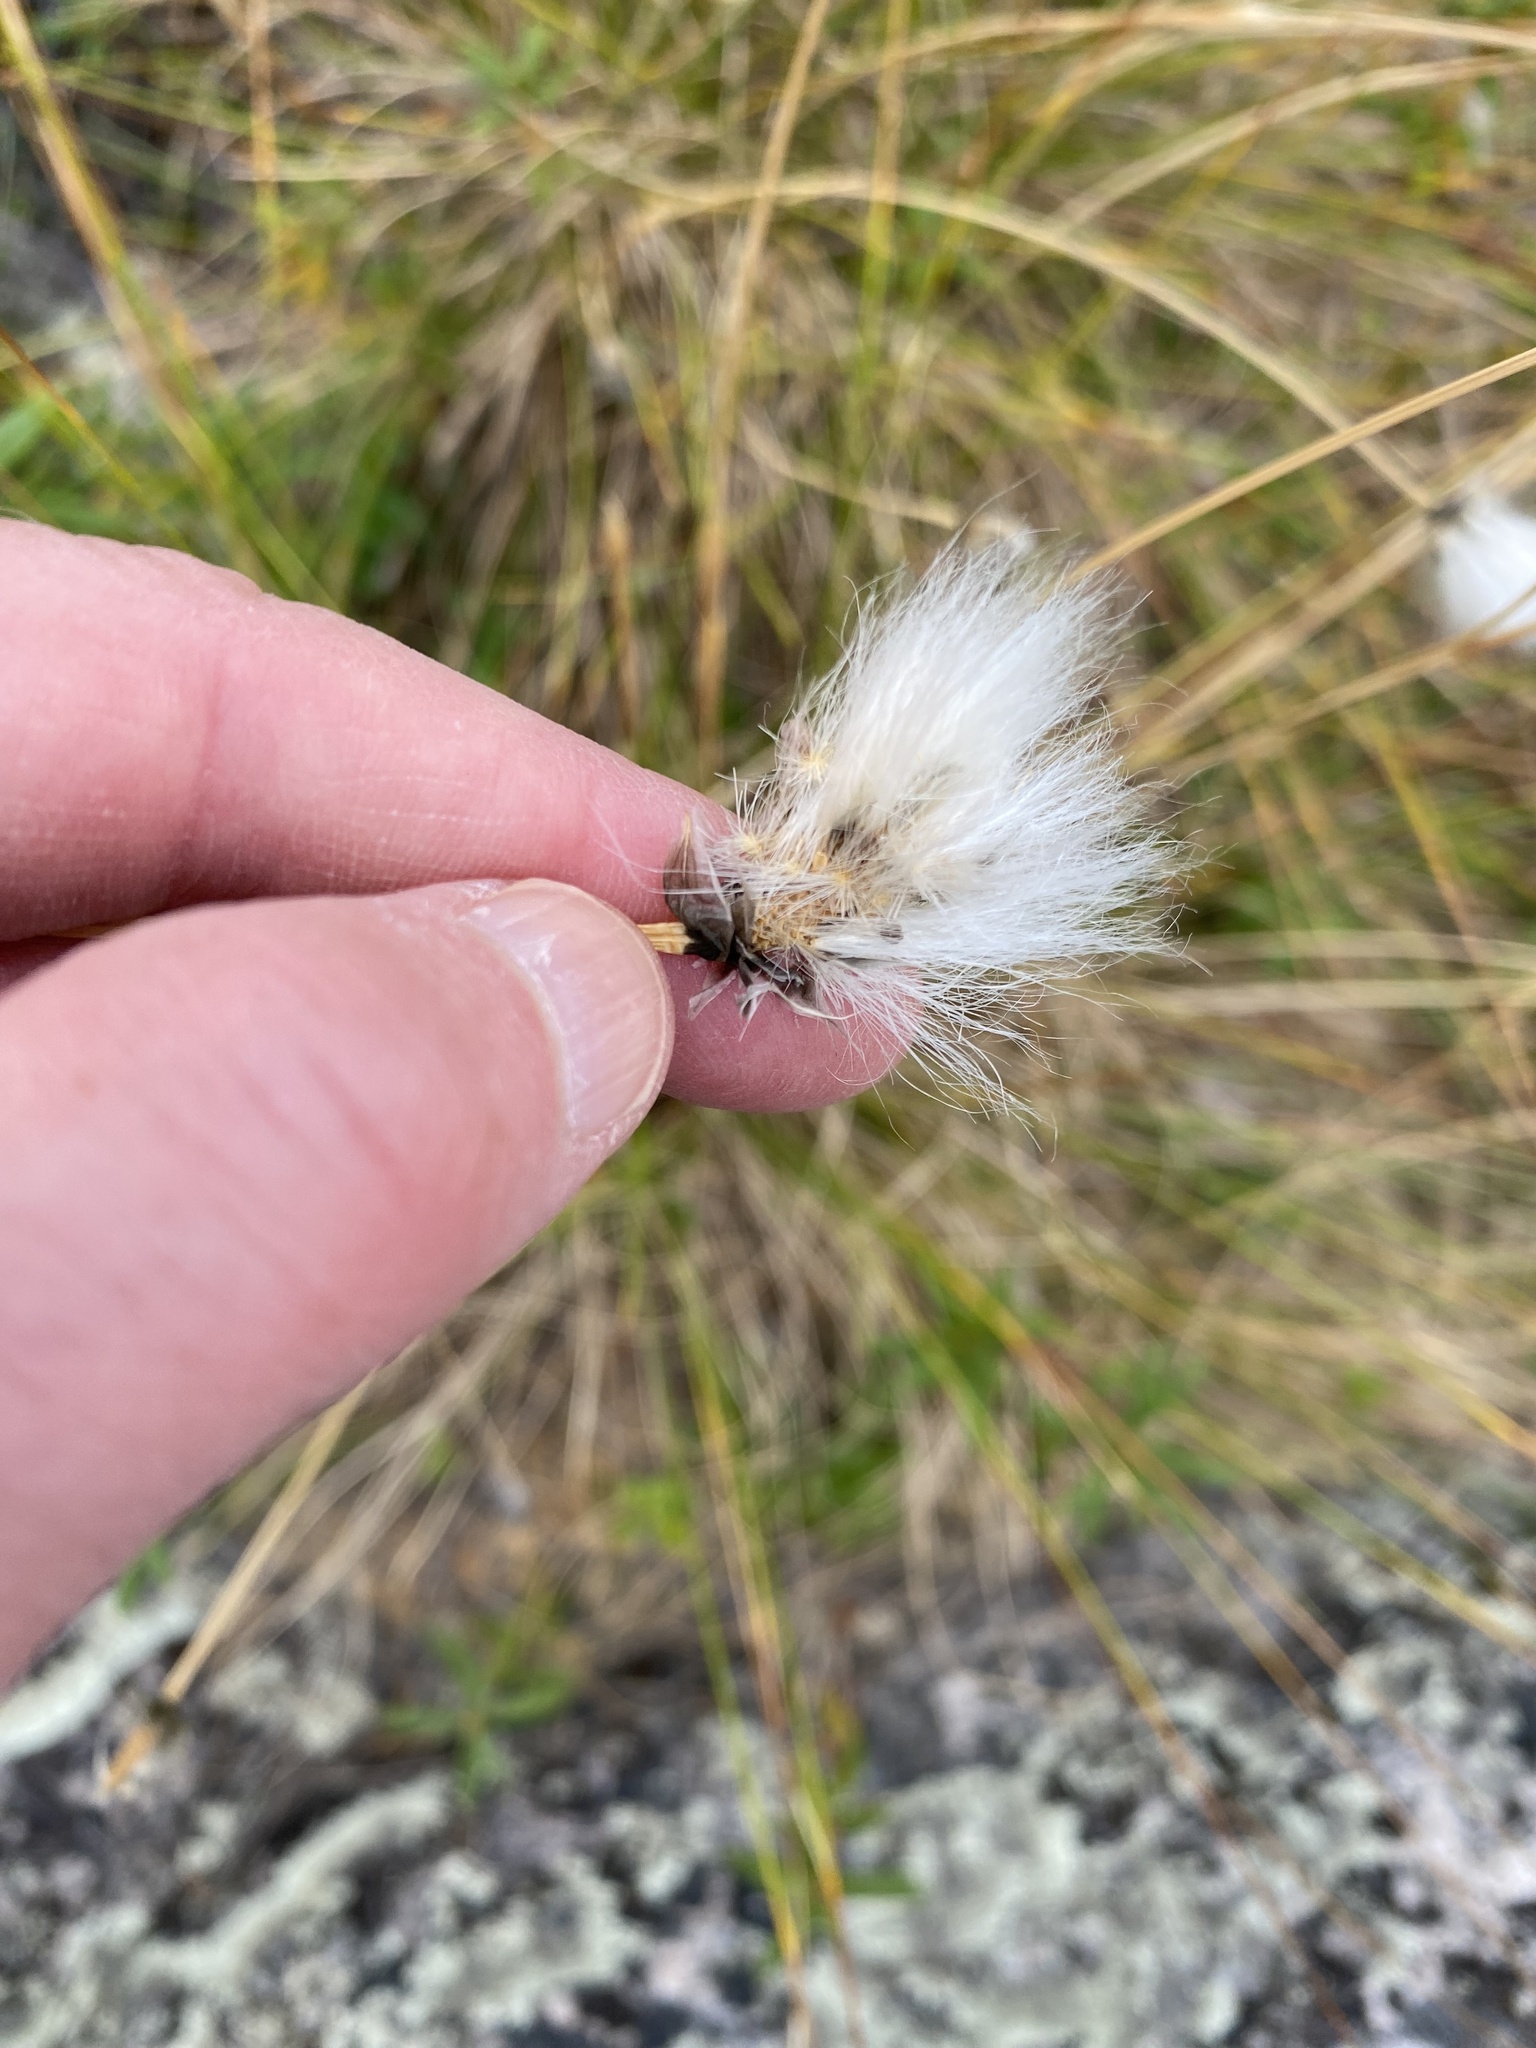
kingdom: Plantae
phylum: Tracheophyta
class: Liliopsida
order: Poales
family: Cyperaceae
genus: Eriophorum
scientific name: Eriophorum vaginatum
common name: Hare's-tail cottongrass
